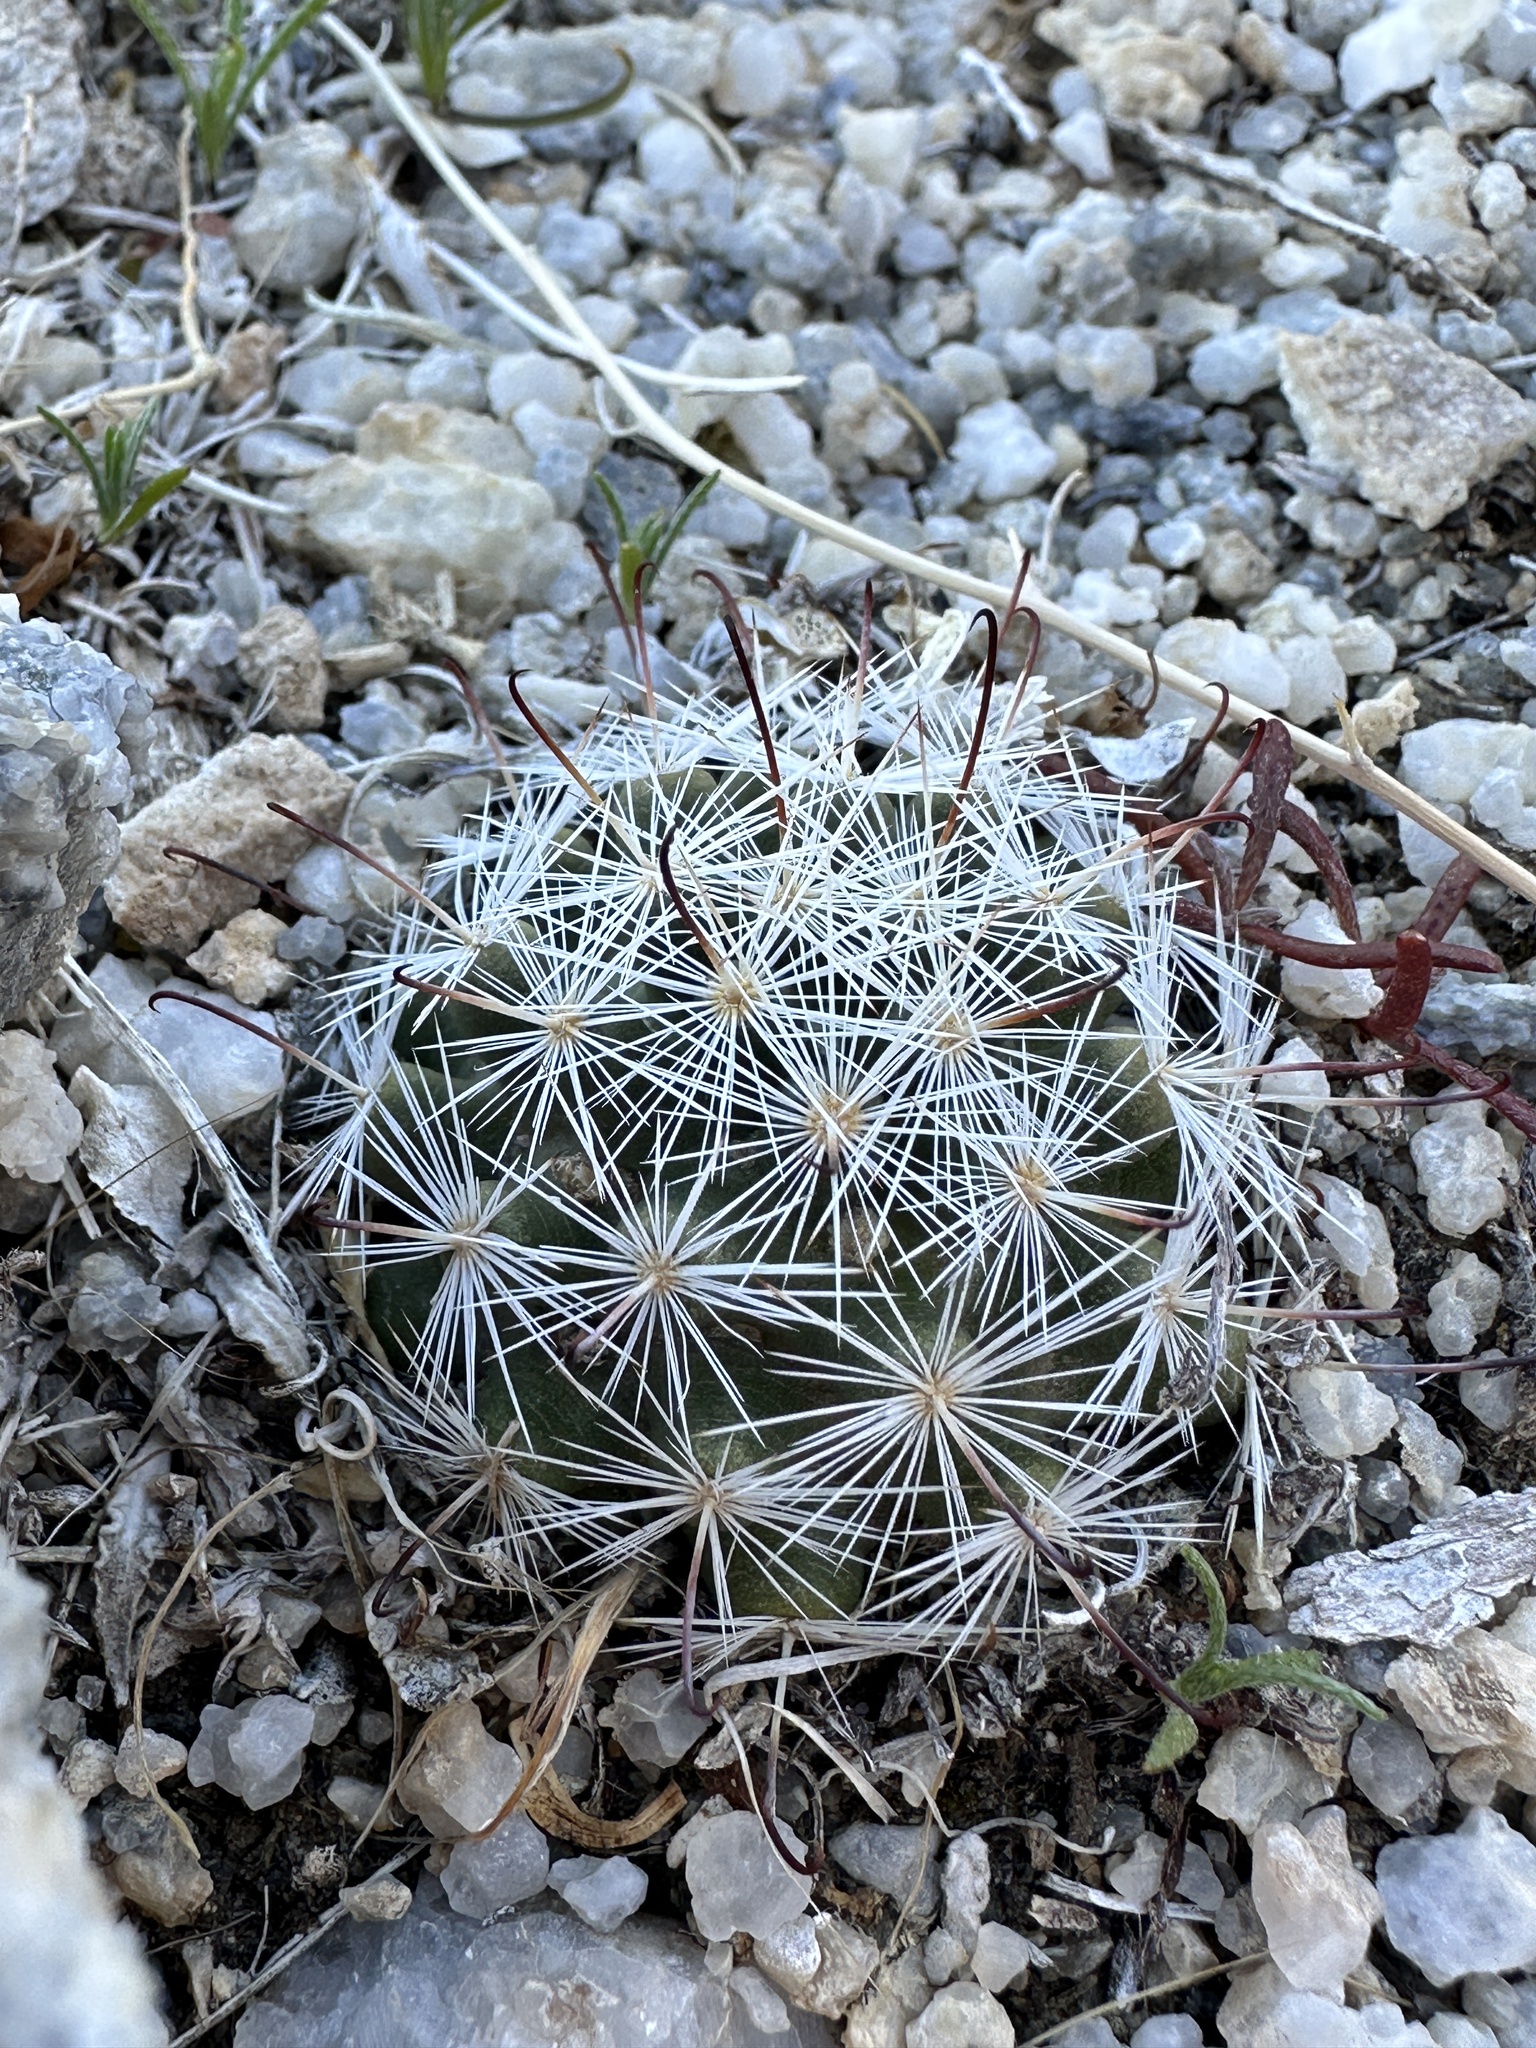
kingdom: Plantae
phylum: Tracheophyta
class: Magnoliopsida
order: Caryophyllales
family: Cactaceae
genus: Cochemiea
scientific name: Cochemiea tetrancistra
